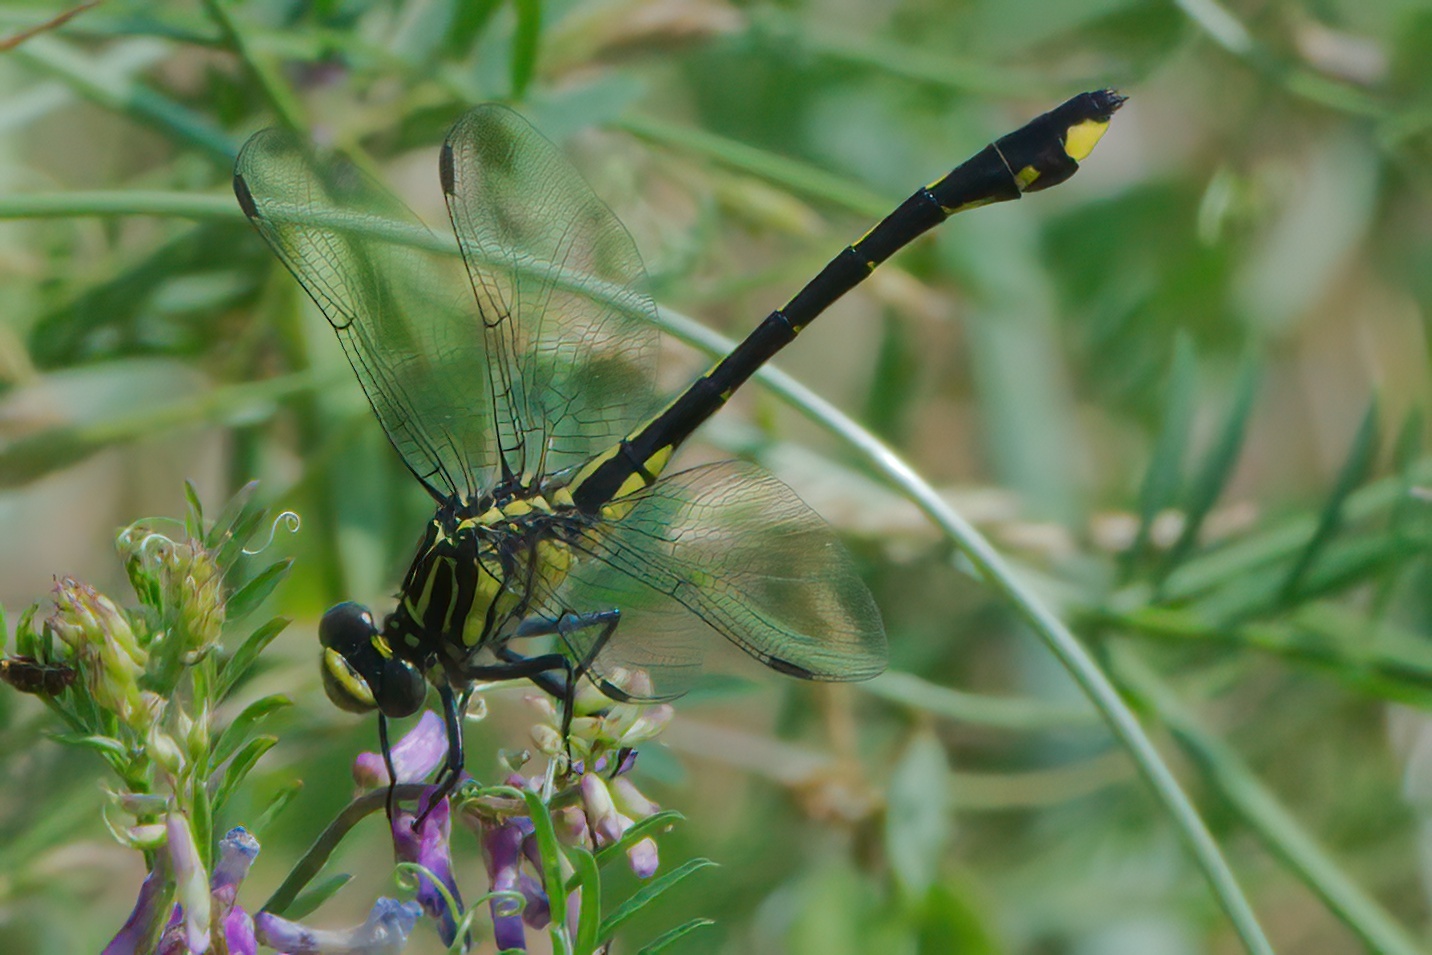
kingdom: Animalia
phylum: Arthropoda
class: Insecta
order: Odonata
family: Gomphidae
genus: Gomphurus
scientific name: Gomphurus vastus
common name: Cobra clubtail
